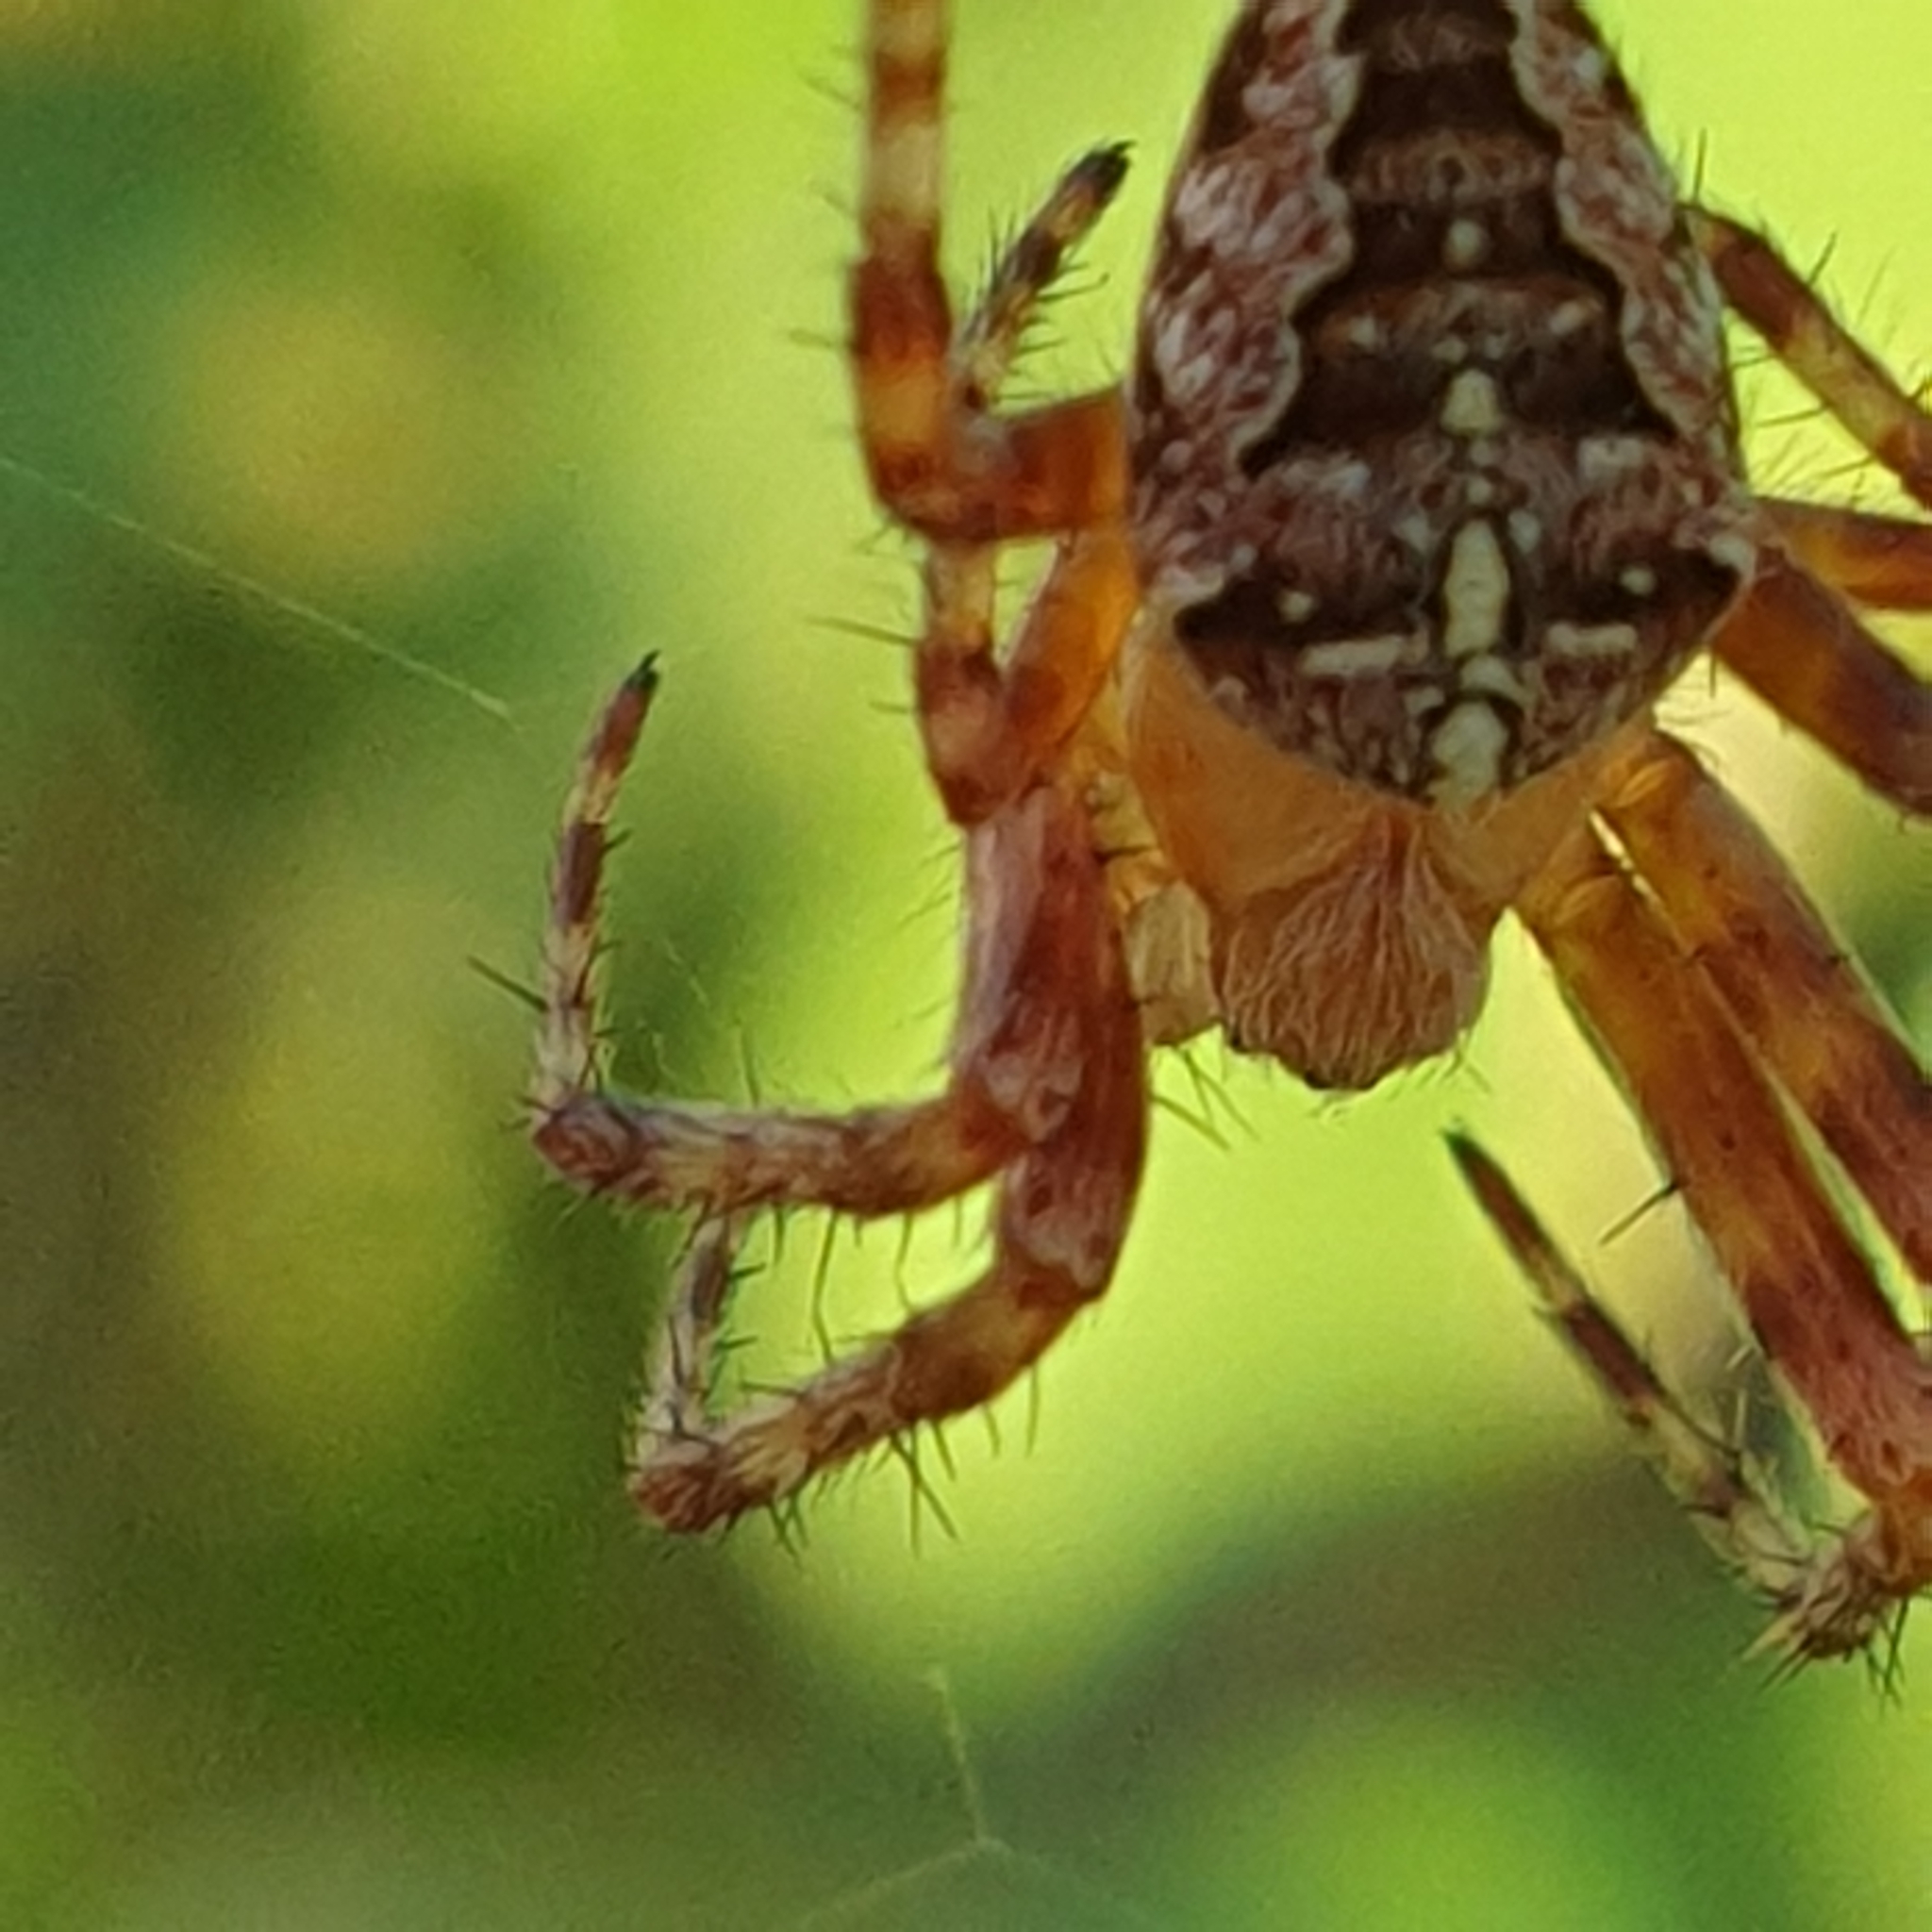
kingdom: Animalia
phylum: Arthropoda
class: Arachnida
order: Araneae
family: Araneidae
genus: Araneus
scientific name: Araneus diadematus
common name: Cross orbweaver
